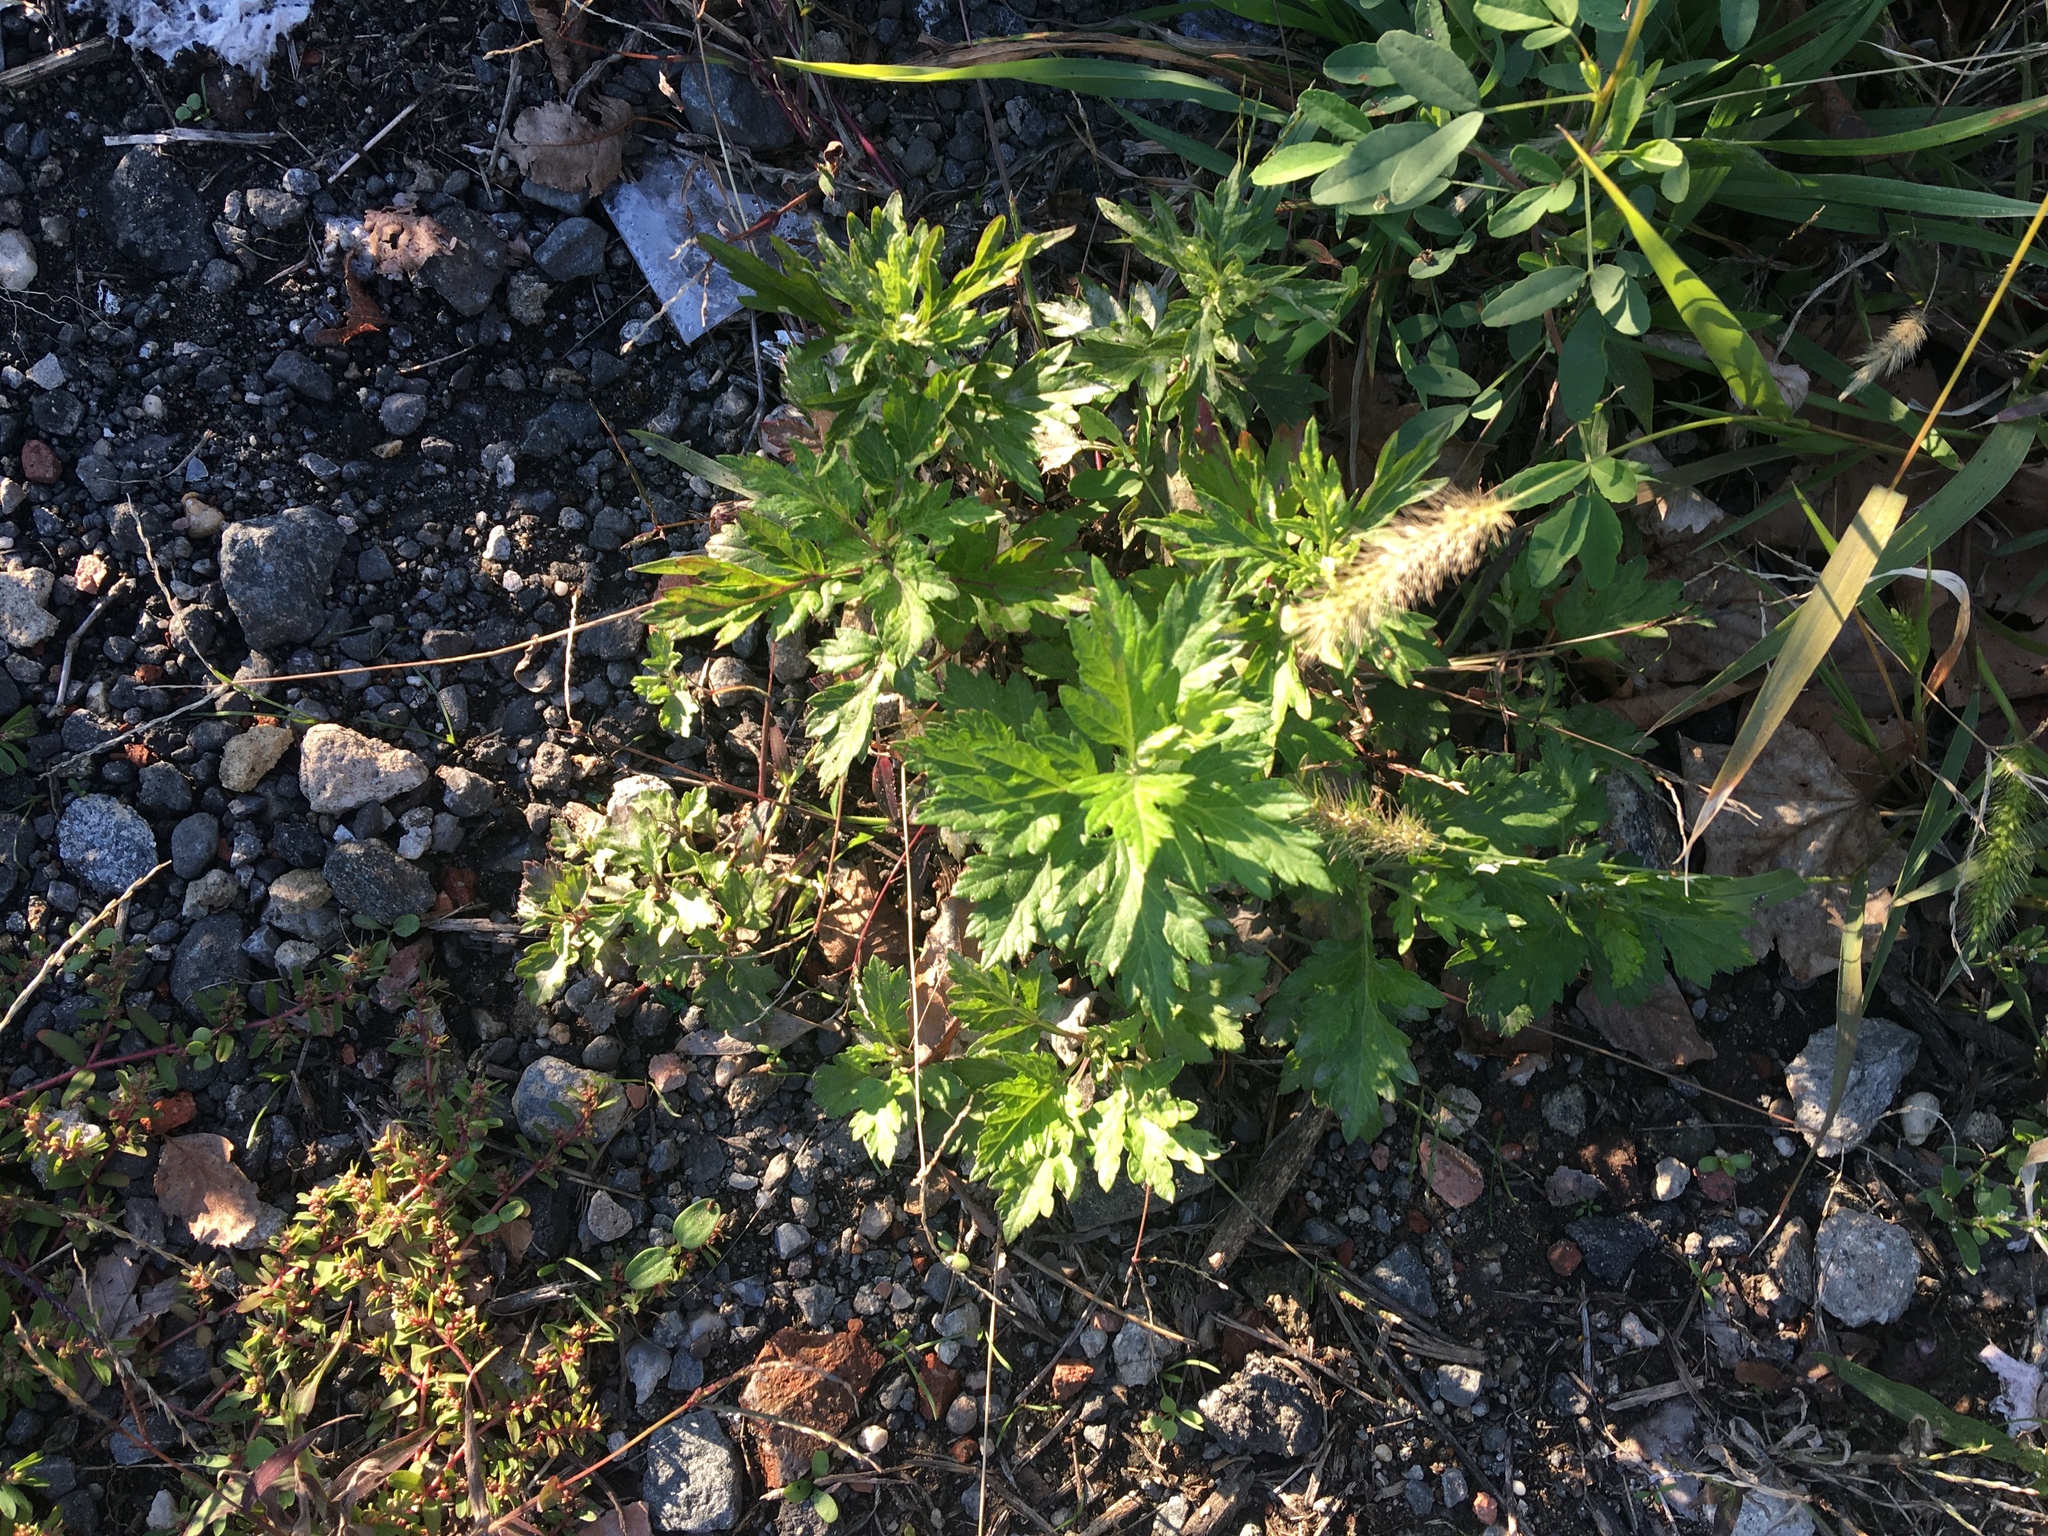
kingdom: Plantae
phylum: Tracheophyta
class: Magnoliopsida
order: Asterales
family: Asteraceae
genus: Artemisia
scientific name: Artemisia vulgaris
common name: Mugwort
